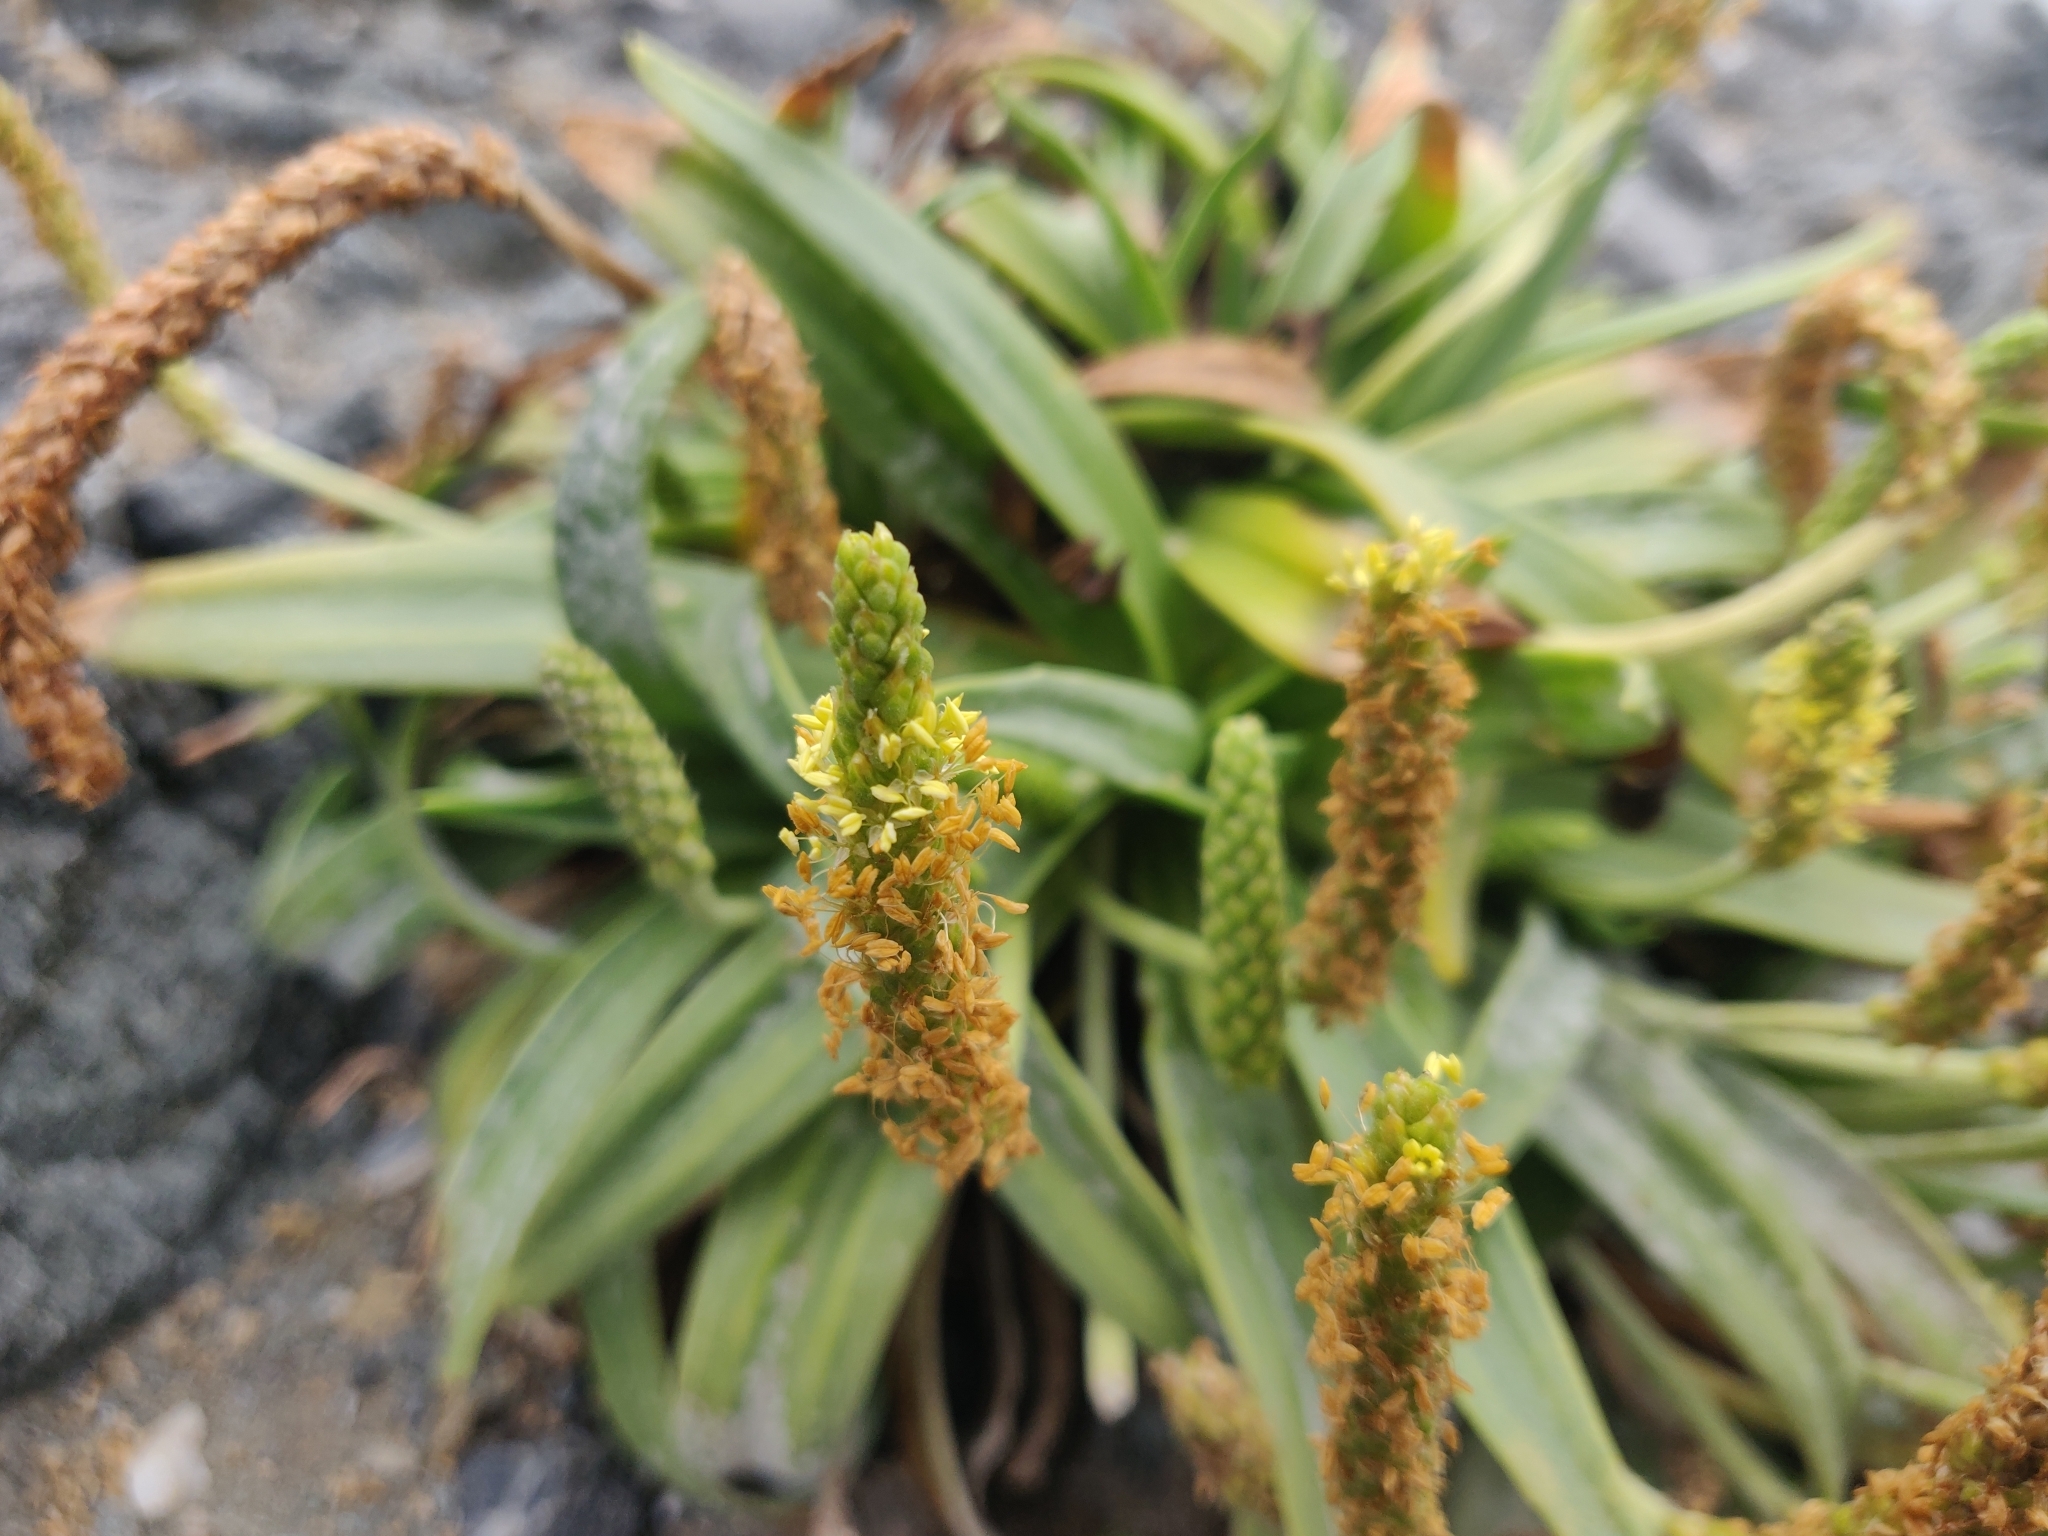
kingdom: Plantae
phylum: Tracheophyta
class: Magnoliopsida
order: Lamiales
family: Plantaginaceae
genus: Plantago
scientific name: Plantago maritima
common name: Sea plantain
